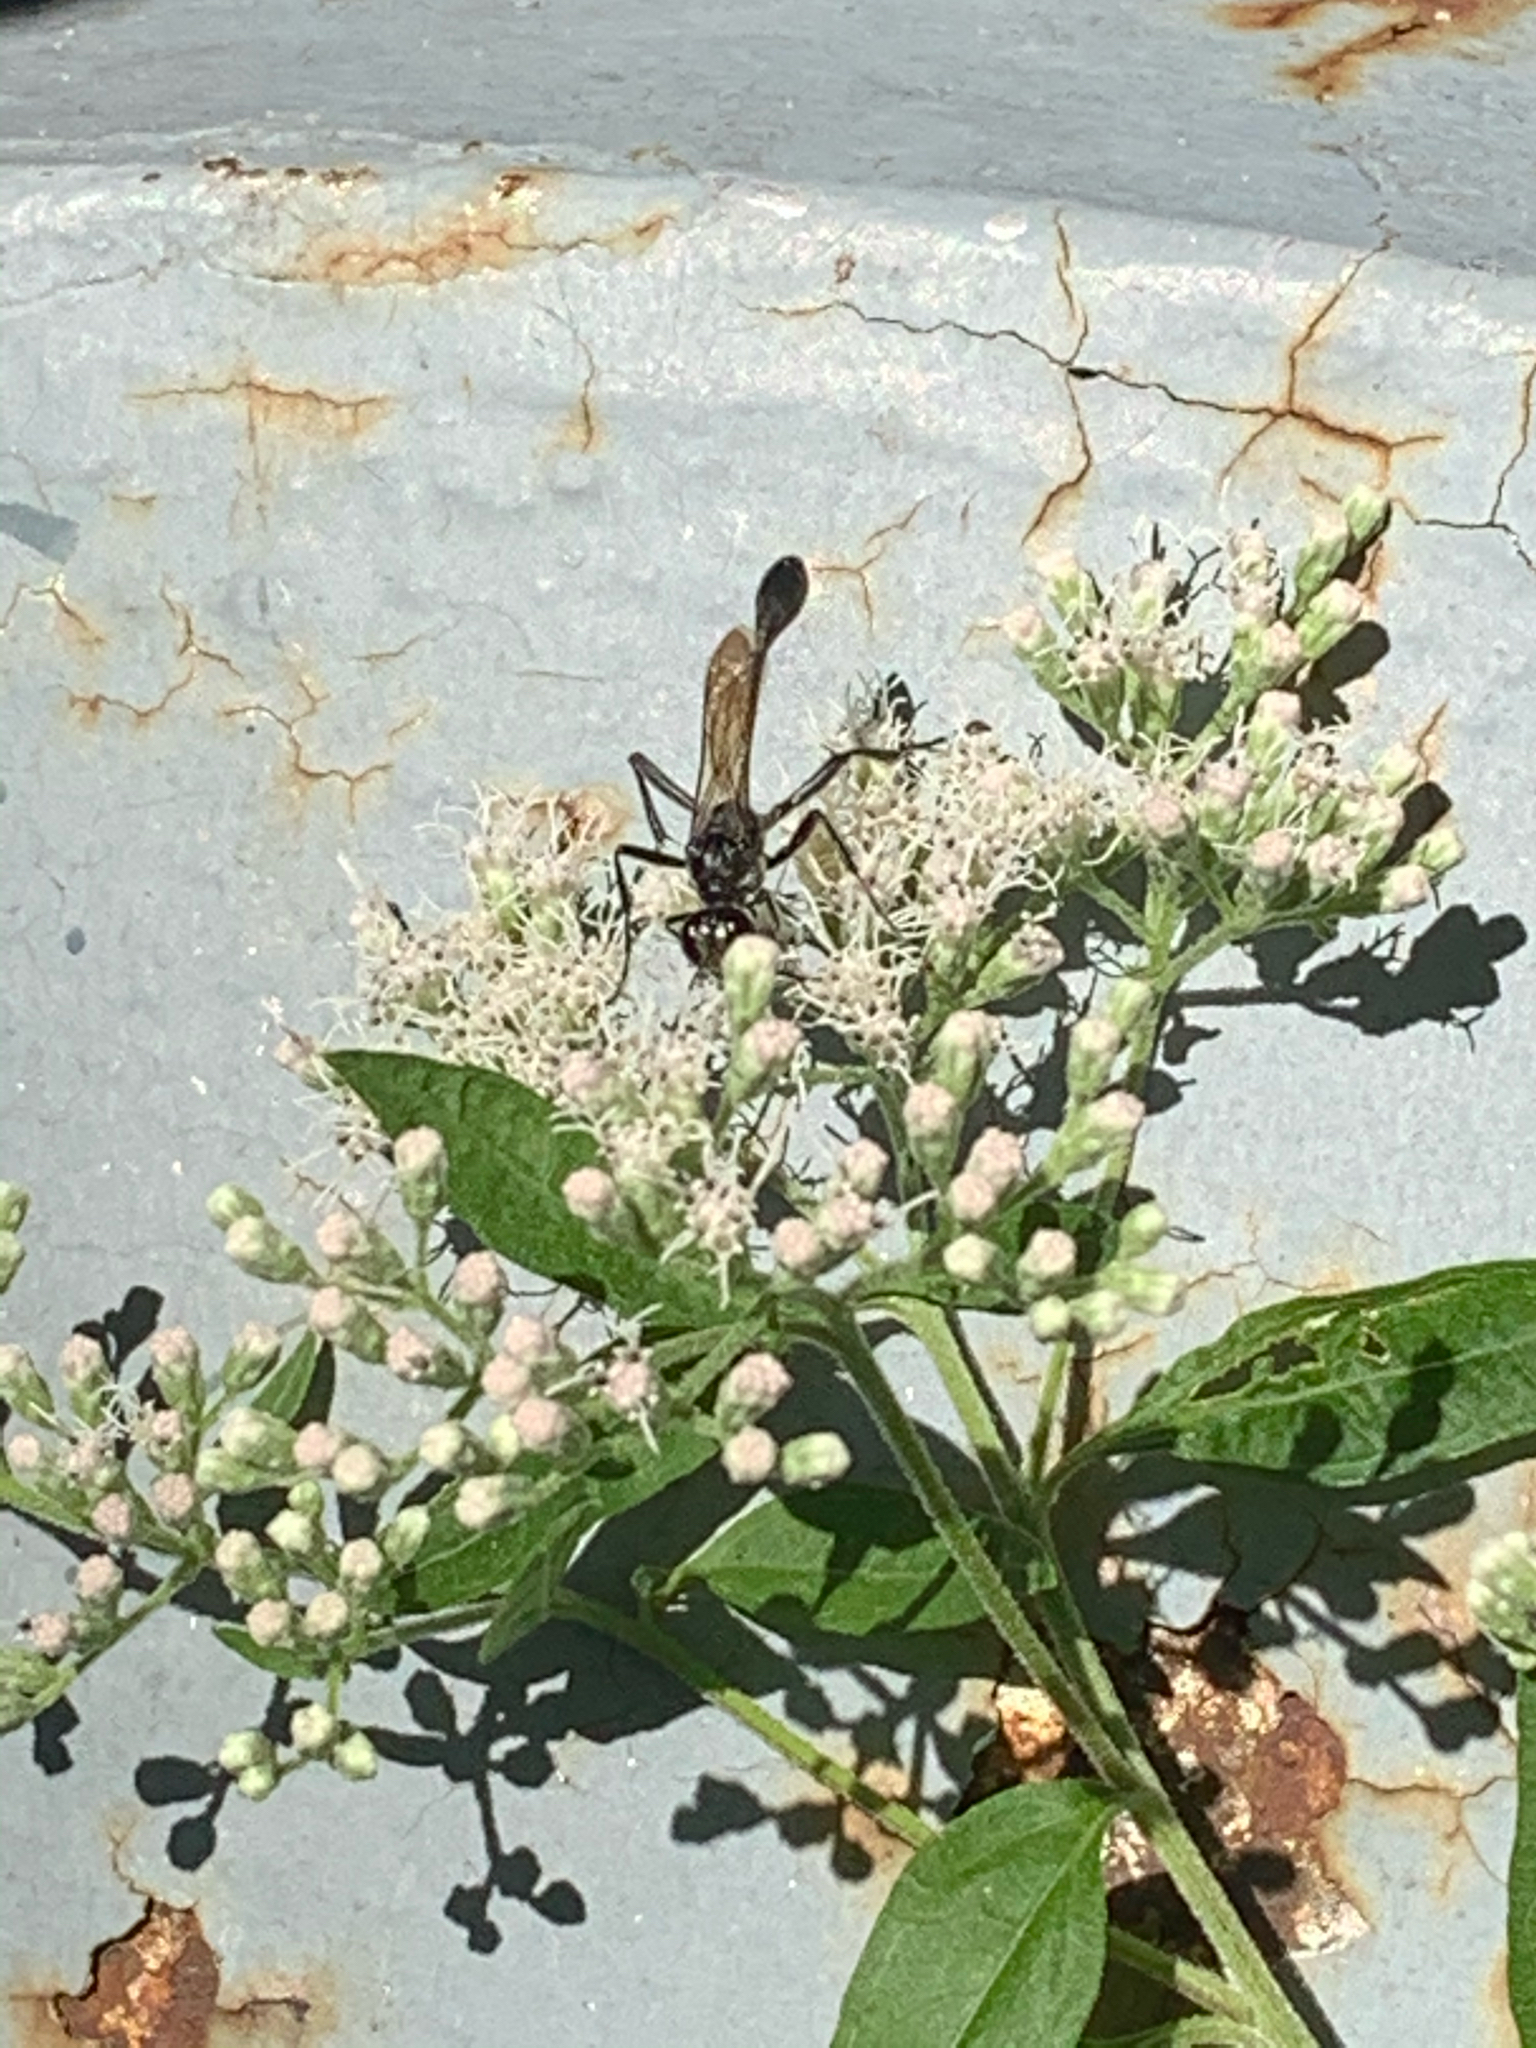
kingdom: Animalia
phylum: Arthropoda
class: Insecta
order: Hymenoptera
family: Sphecidae
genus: Eremnophila
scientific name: Eremnophila aureonotata
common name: Gold-marked thread-waisted wasp
